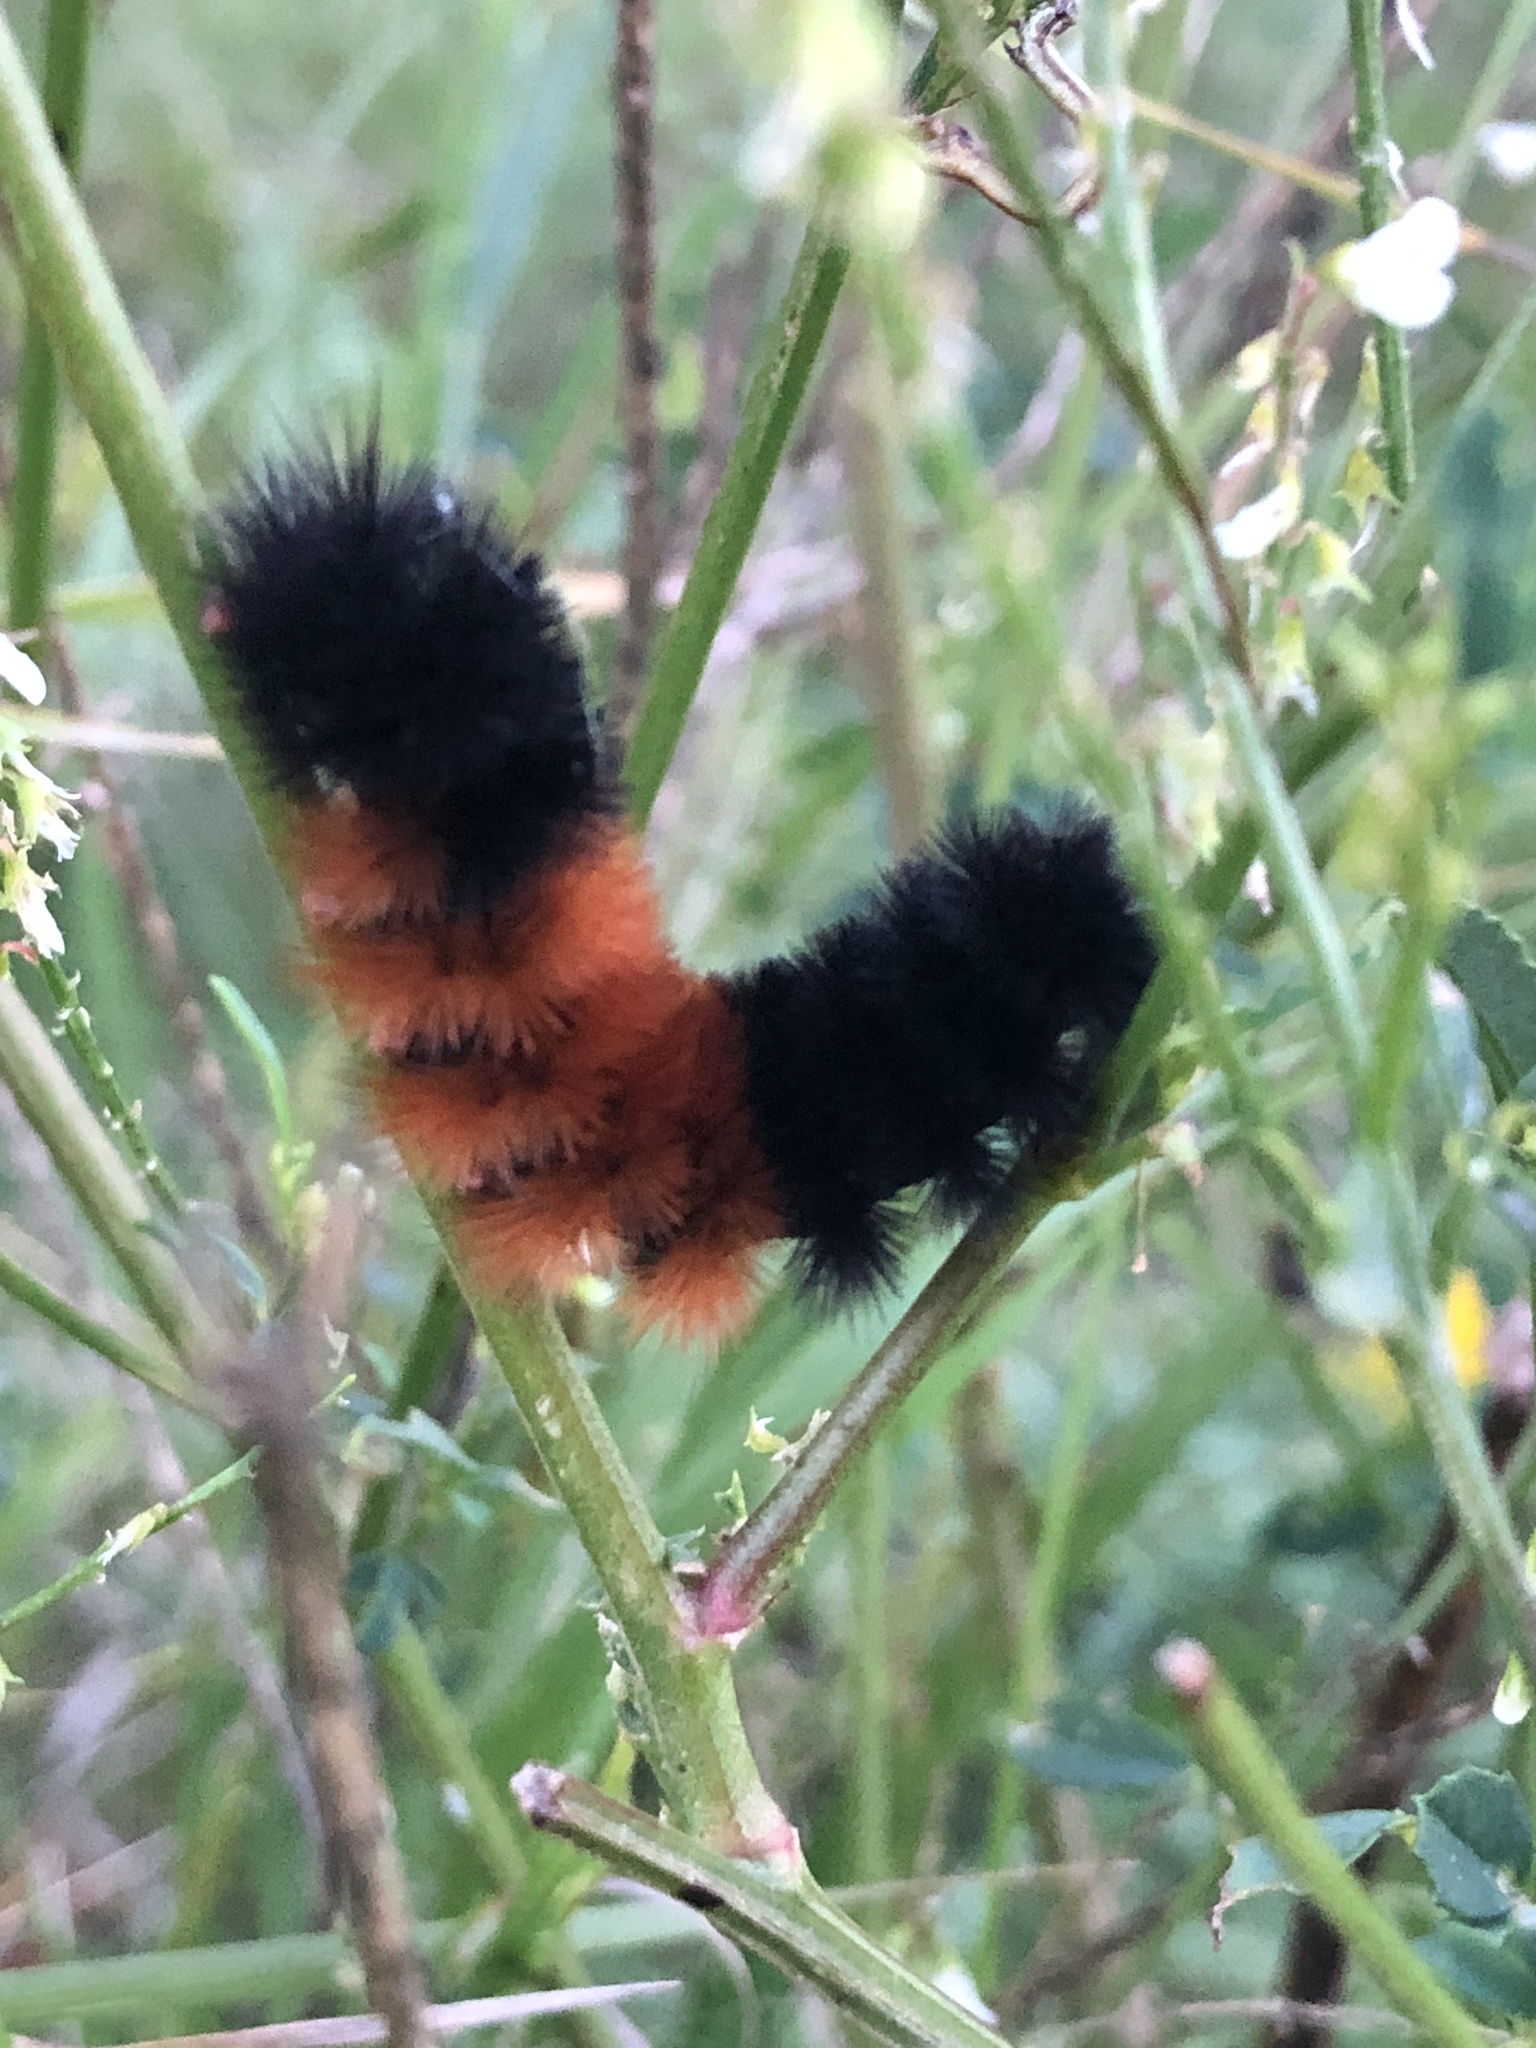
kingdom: Animalia
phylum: Arthropoda
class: Insecta
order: Lepidoptera
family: Erebidae
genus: Pyrrharctia
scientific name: Pyrrharctia isabella
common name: Isabella tiger moth
